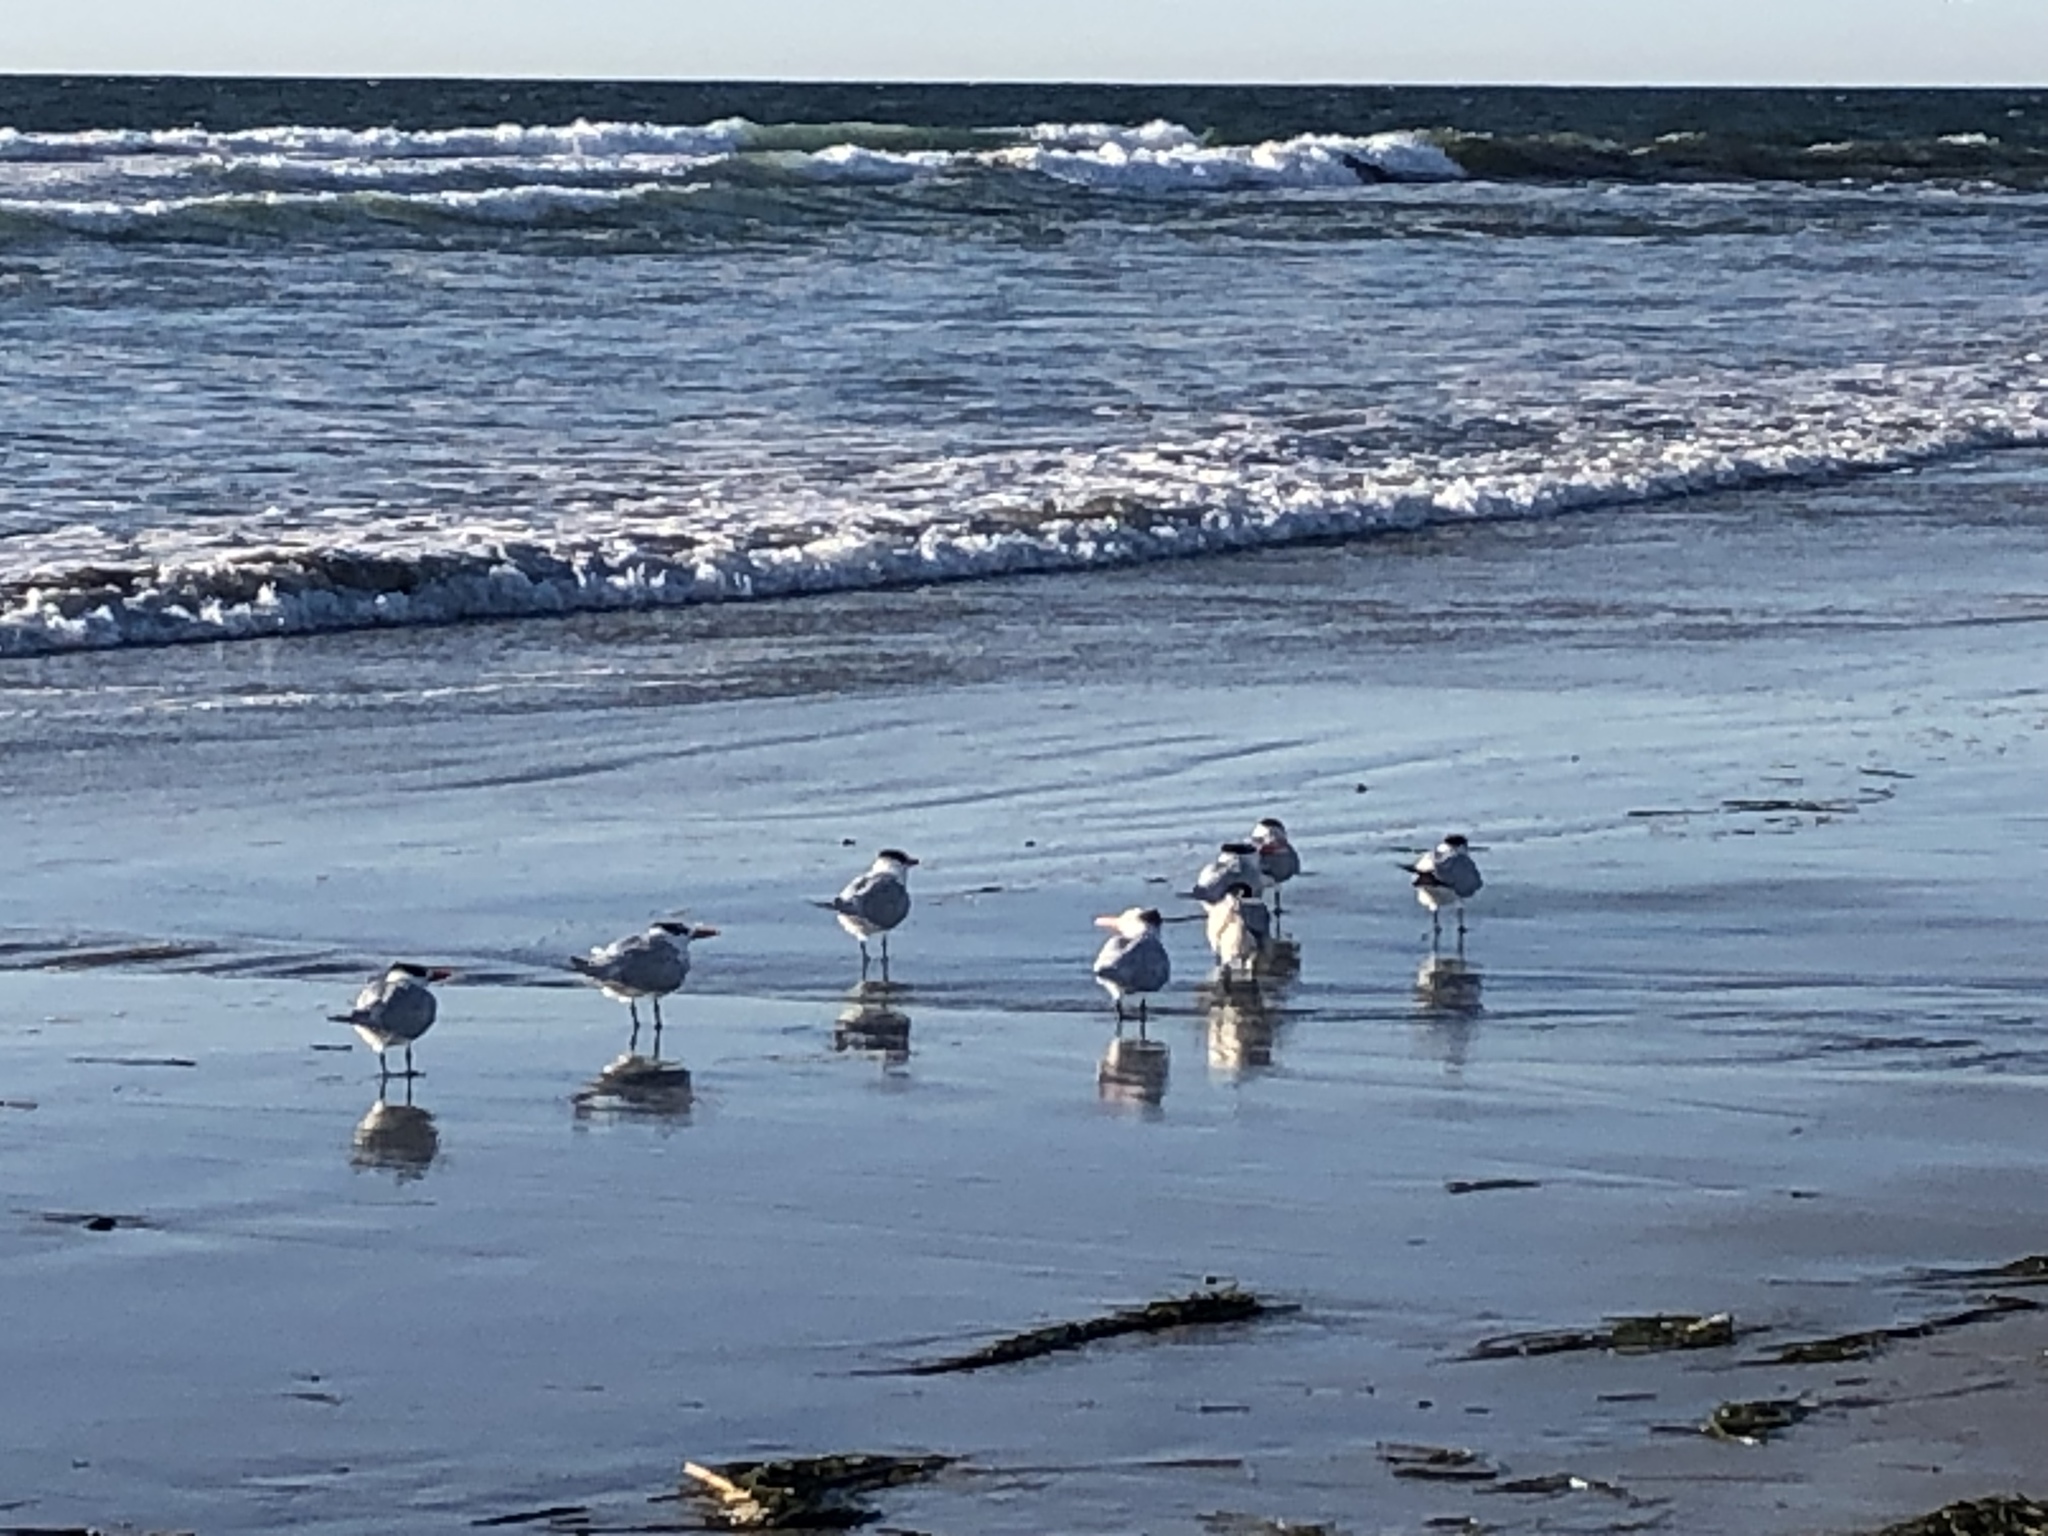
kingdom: Animalia
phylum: Chordata
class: Aves
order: Charadriiformes
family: Laridae
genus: Thalasseus
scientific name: Thalasseus maximus
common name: Royal tern
